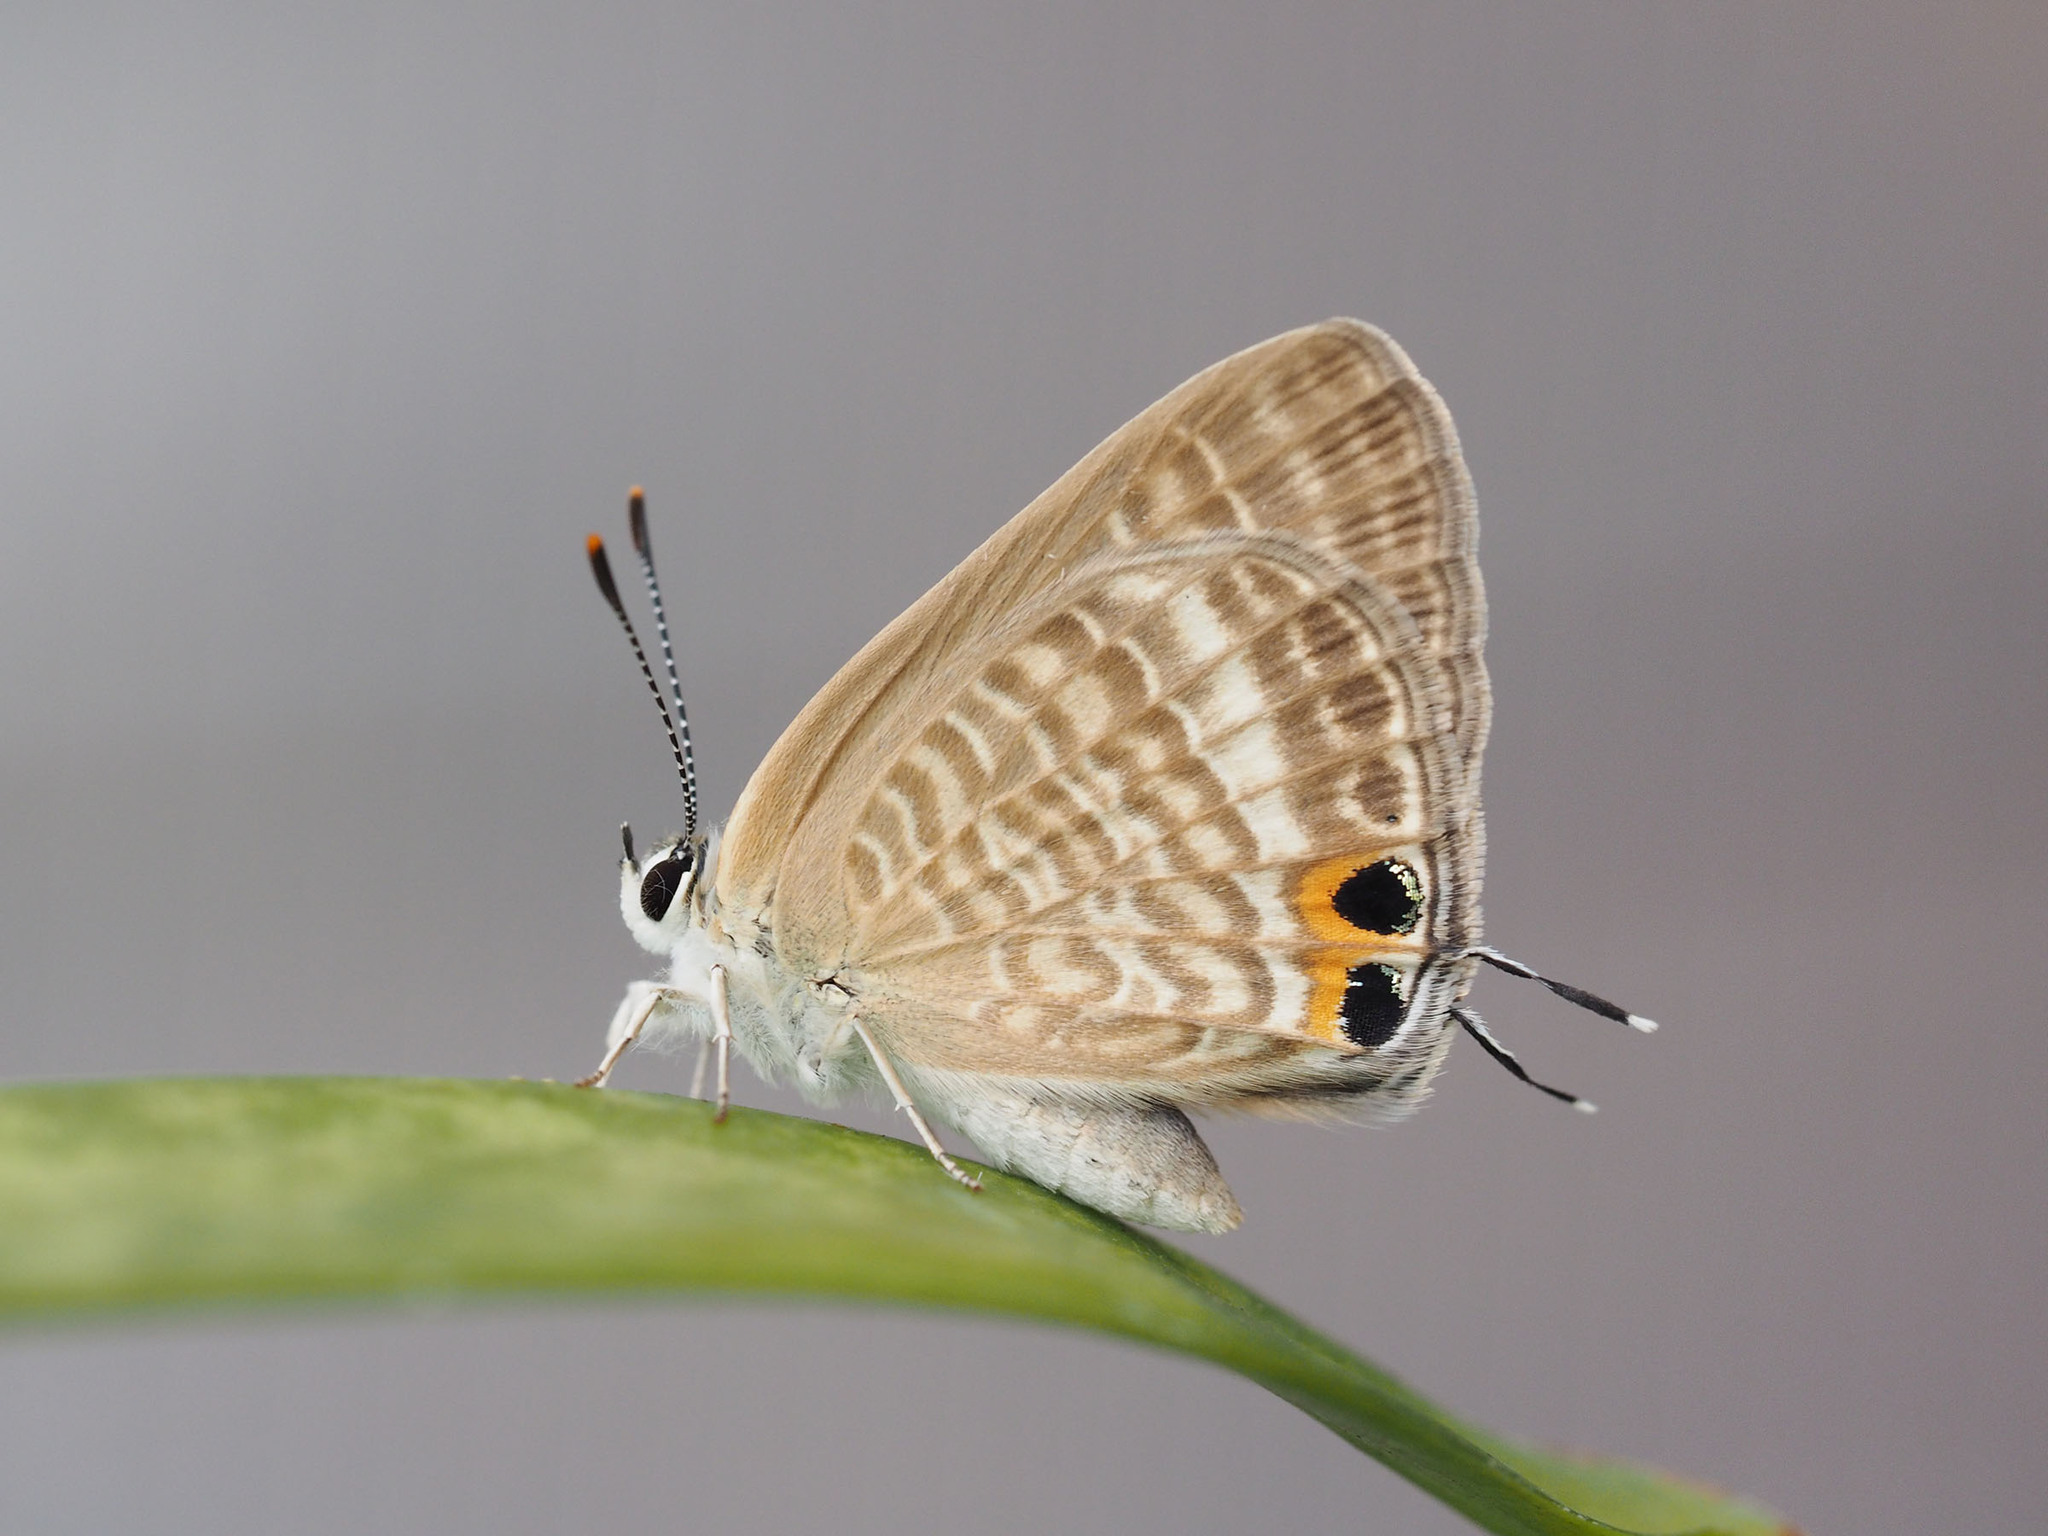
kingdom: Animalia
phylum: Arthropoda
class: Insecta
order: Lepidoptera
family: Lycaenidae
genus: Lampides
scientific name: Lampides boeticus
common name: Long-tailed blue
